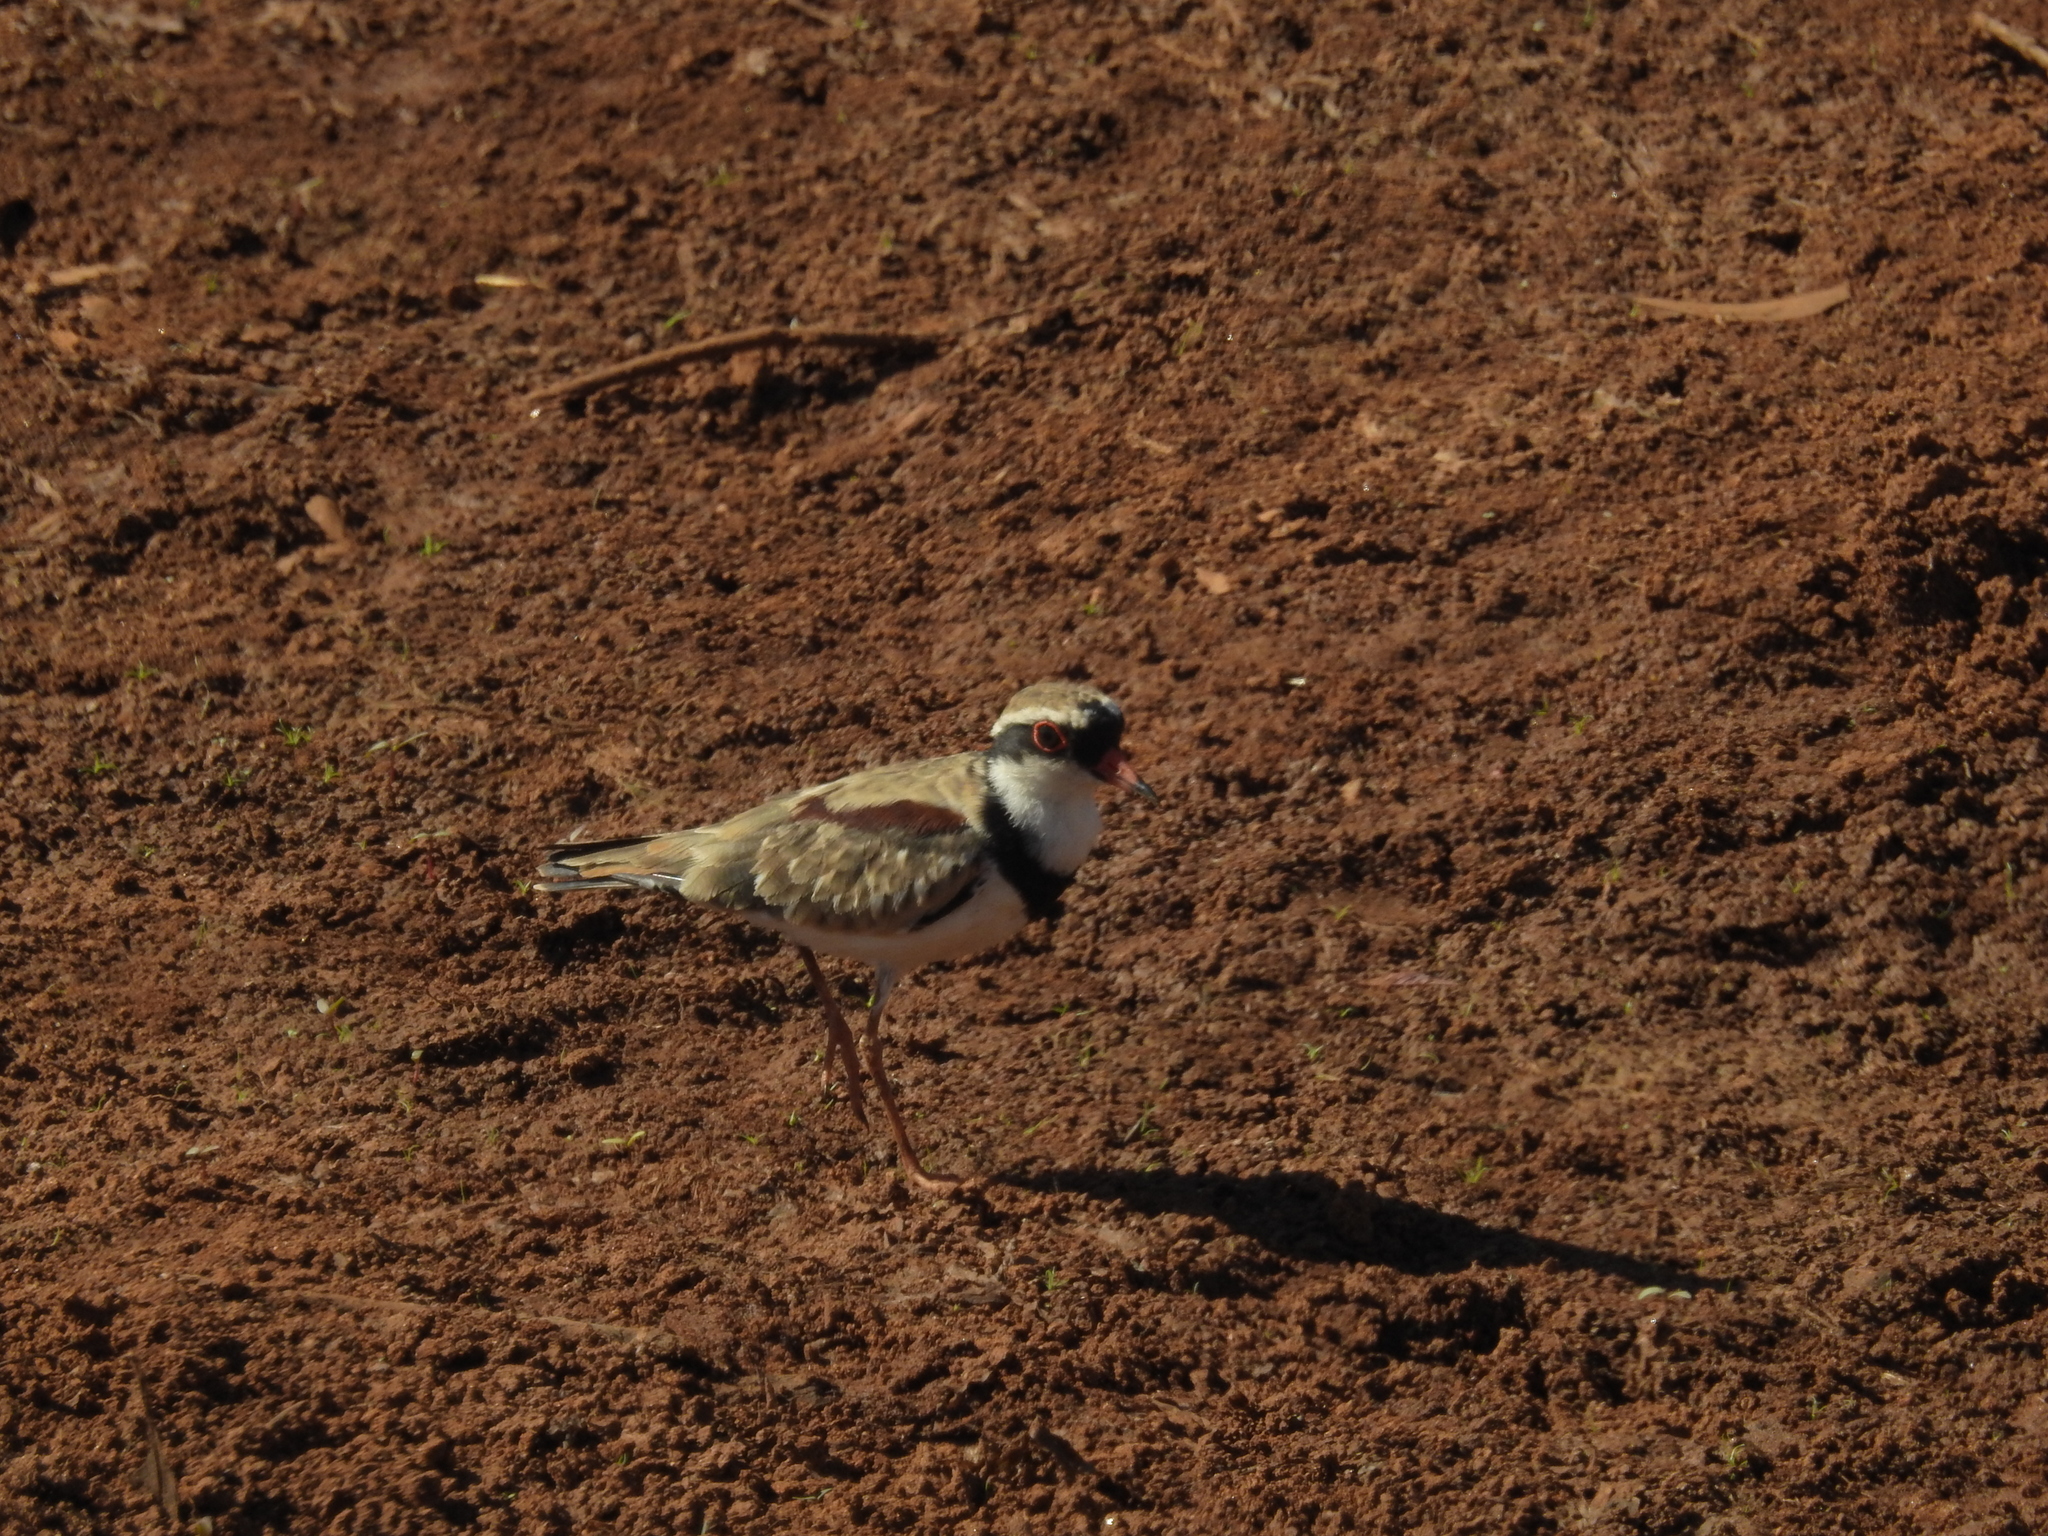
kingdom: Animalia
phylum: Chordata
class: Aves
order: Charadriiformes
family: Charadriidae
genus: Elseyornis
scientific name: Elseyornis melanops
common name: Black-fronted dotterel
